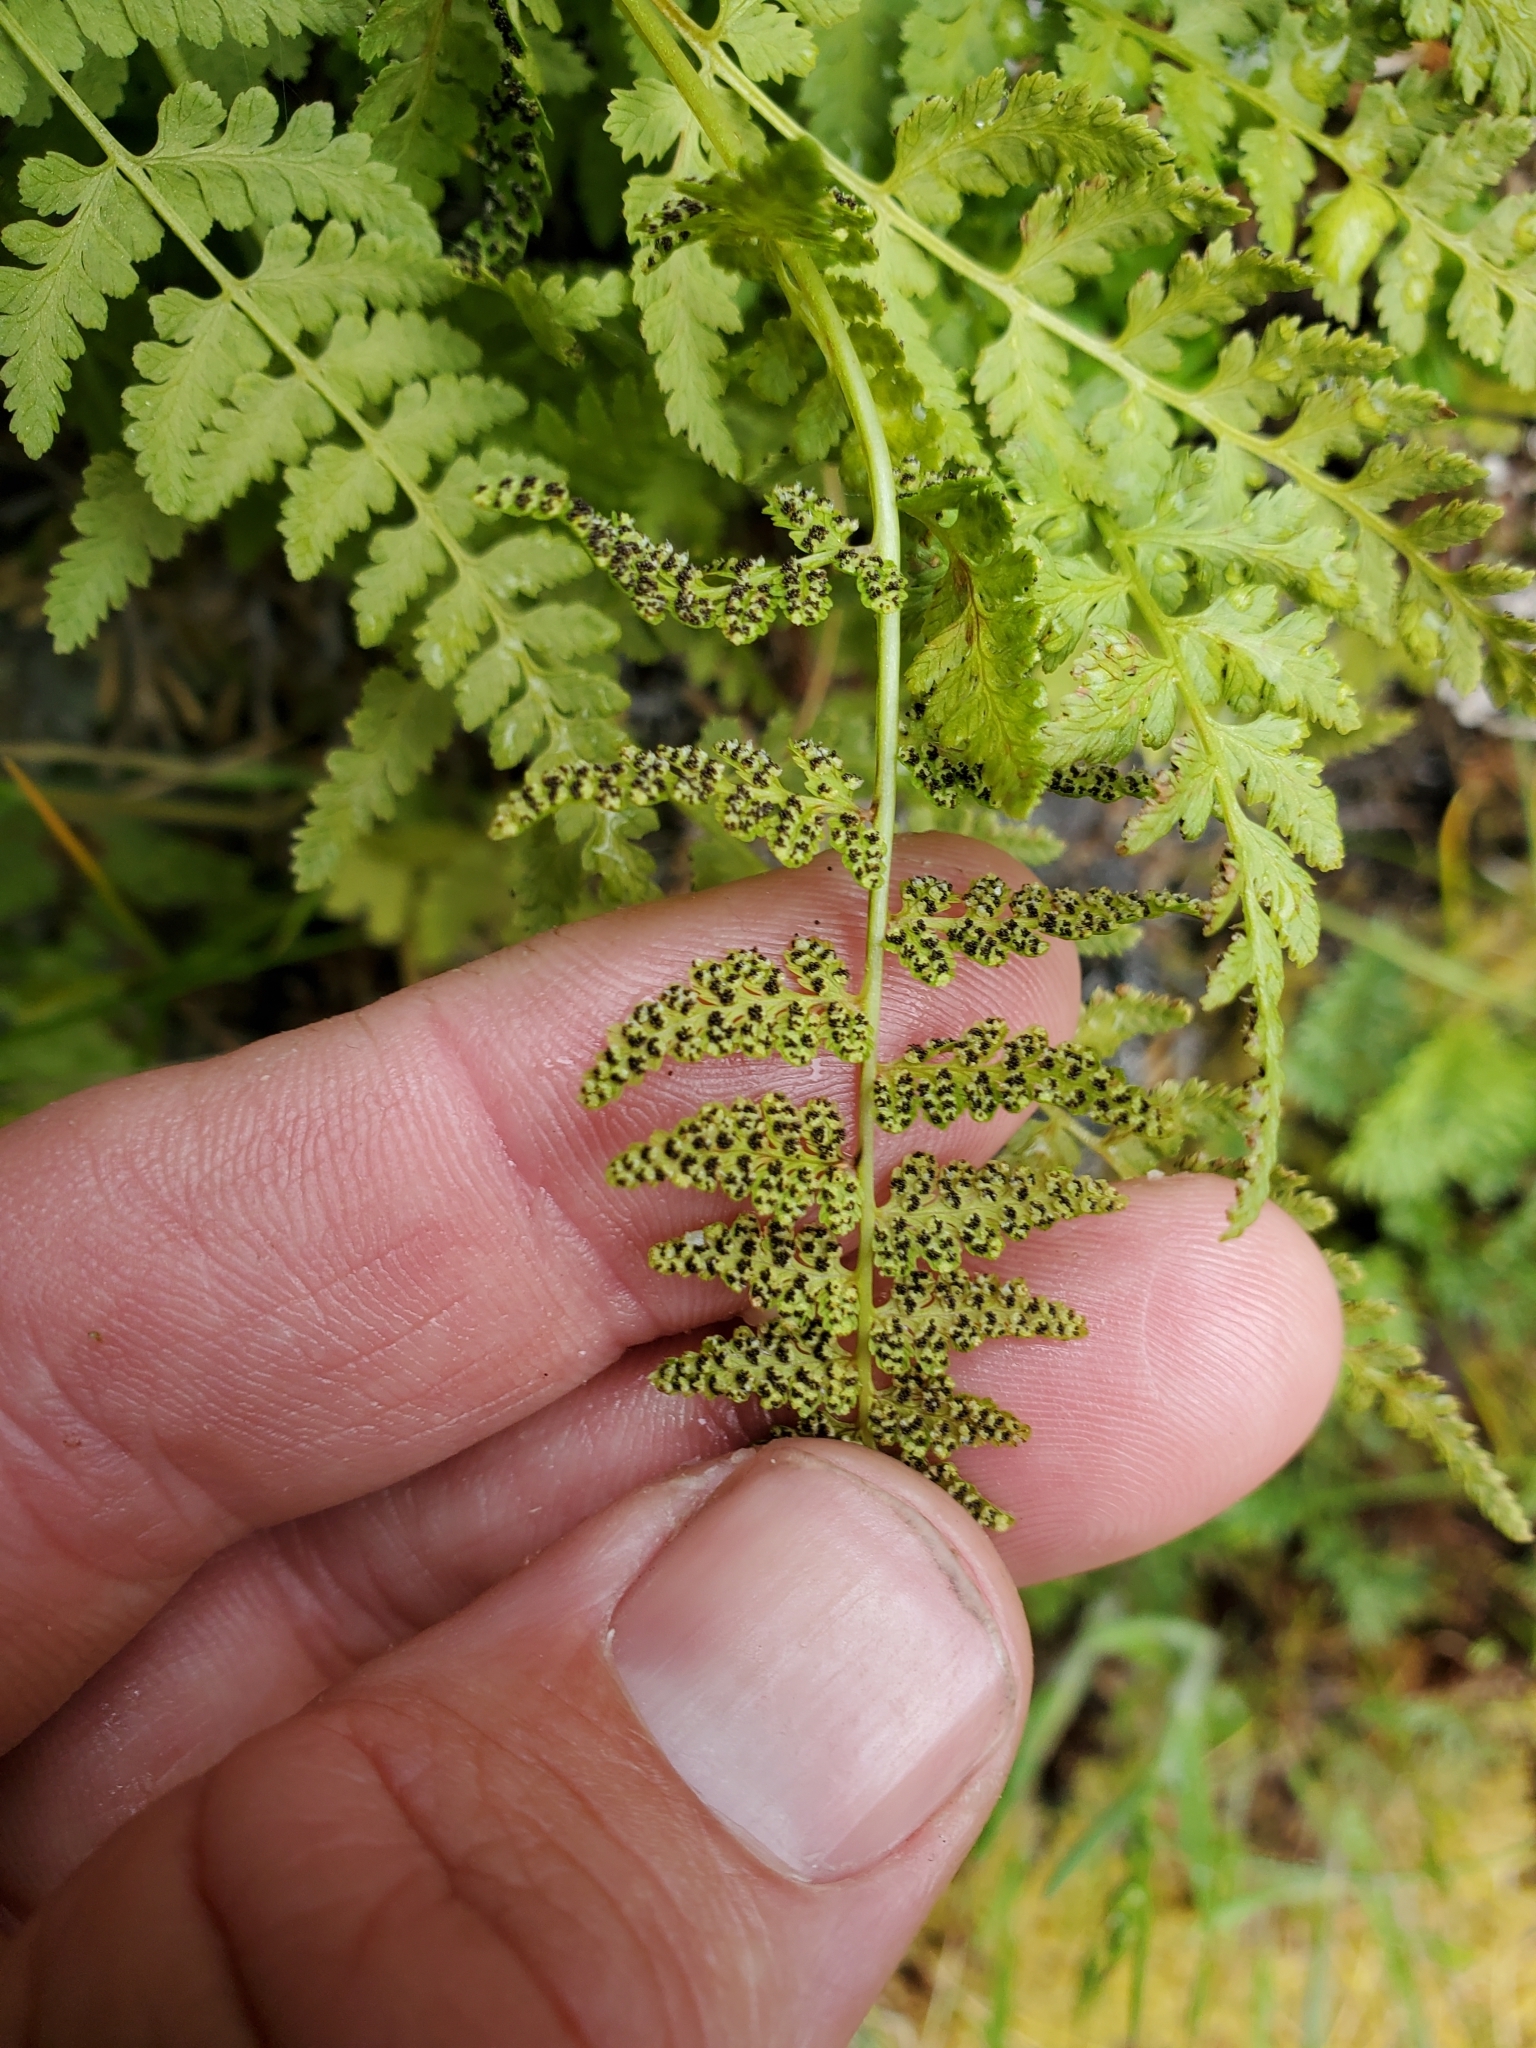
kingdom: Plantae
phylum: Tracheophyta
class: Polypodiopsida
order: Polypodiales
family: Cystopteridaceae
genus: Cystopteris
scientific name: Cystopteris fragilis
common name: Brittle bladder fern
